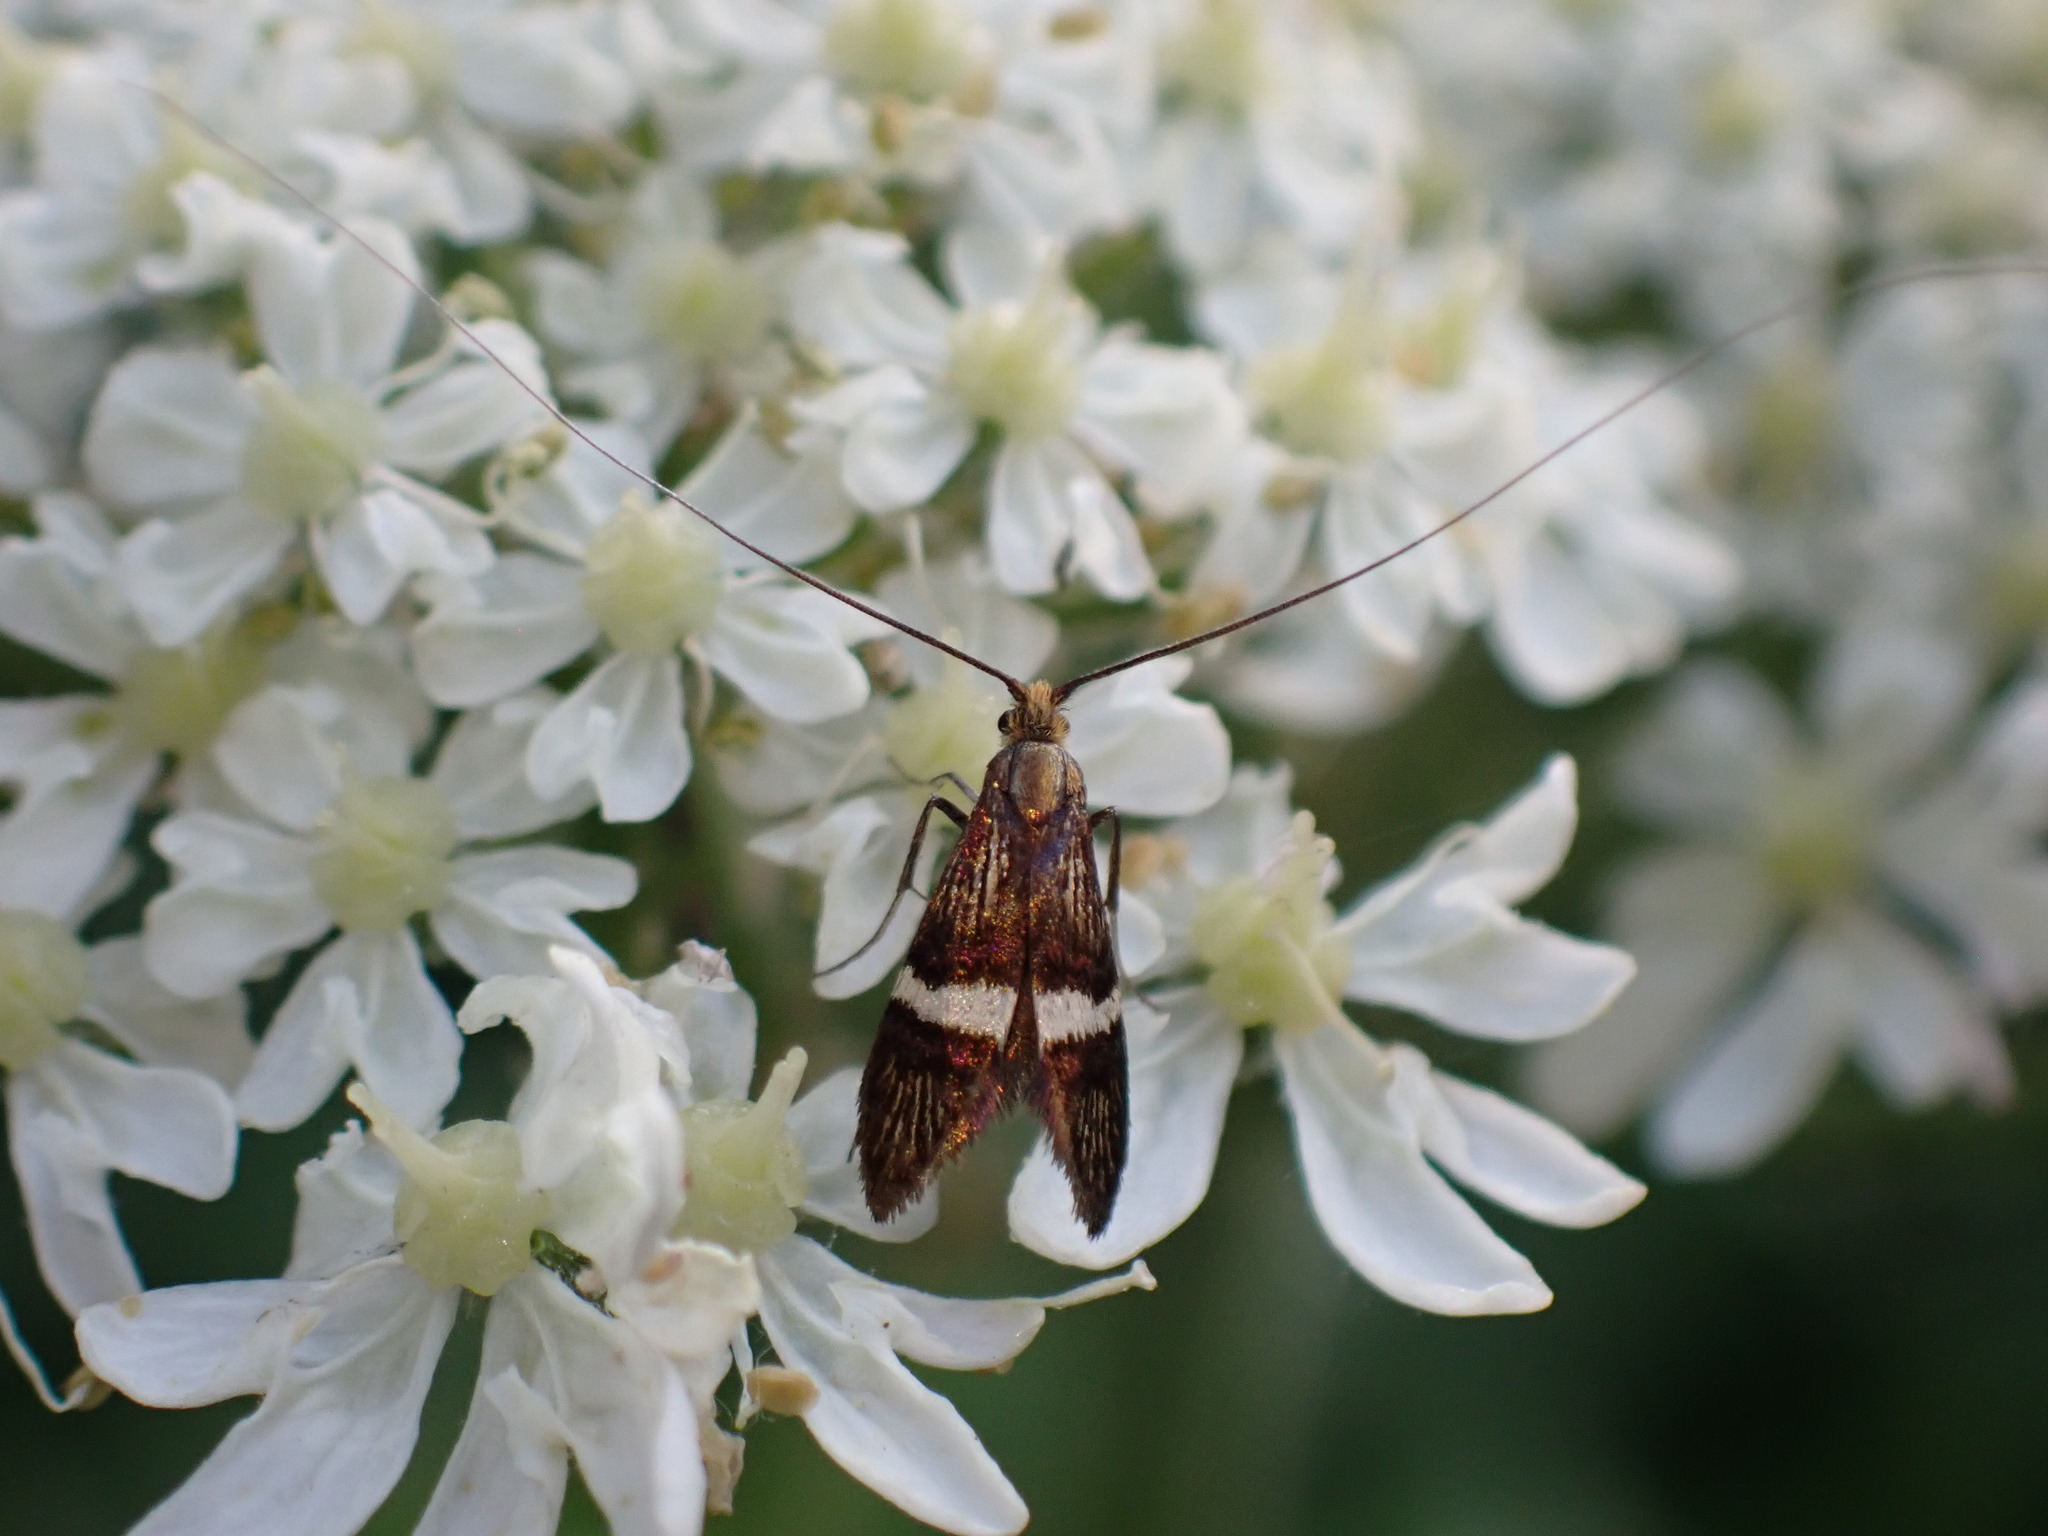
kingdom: Animalia
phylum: Arthropoda
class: Insecta
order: Lepidoptera
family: Adelidae
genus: Adela
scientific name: Adela croesella
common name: Small barred long-horn
